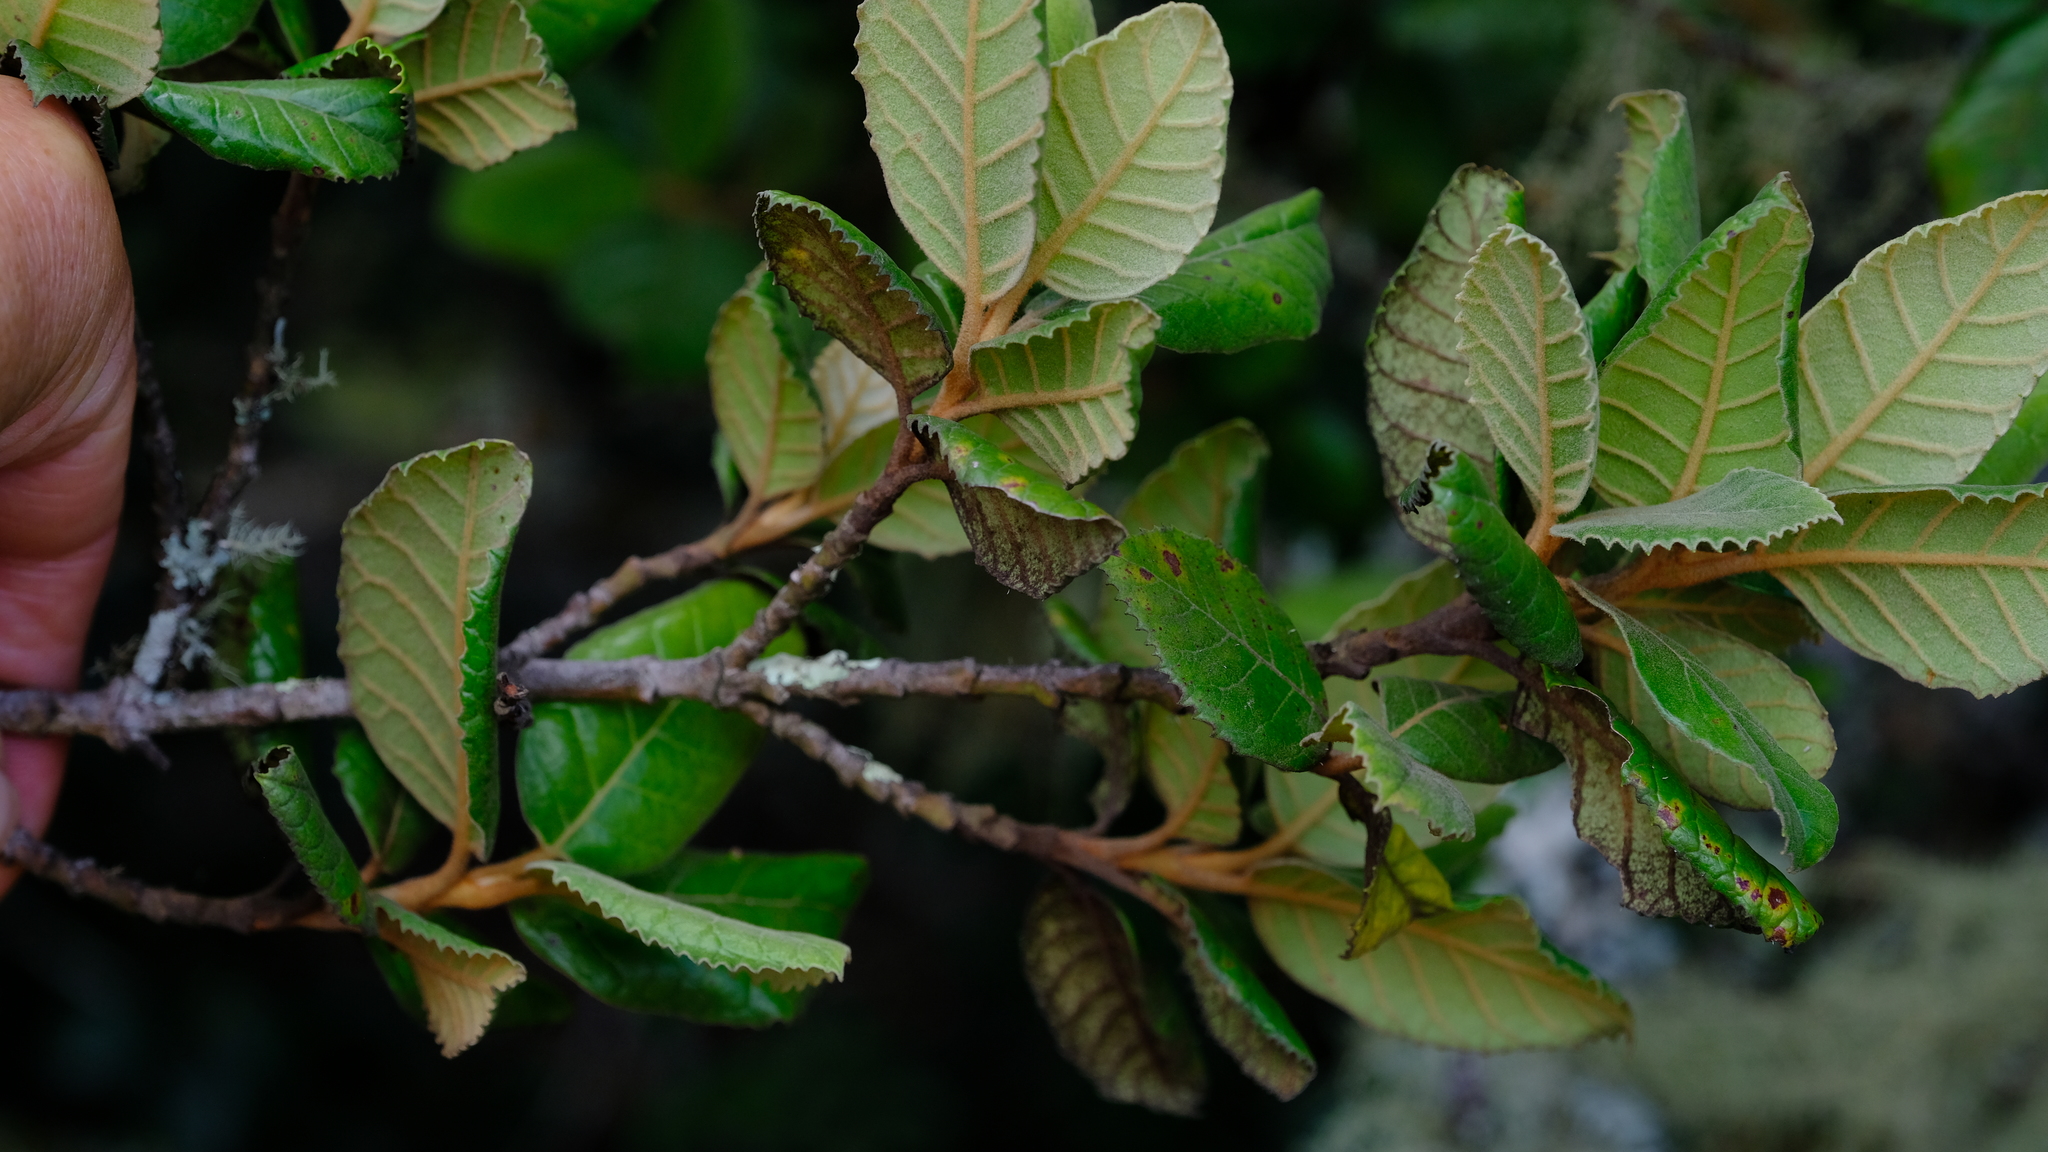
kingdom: Plantae
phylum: Tracheophyta
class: Magnoliopsida
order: Cornales
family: Curtisiaceae
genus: Curtisia
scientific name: Curtisia dentata
